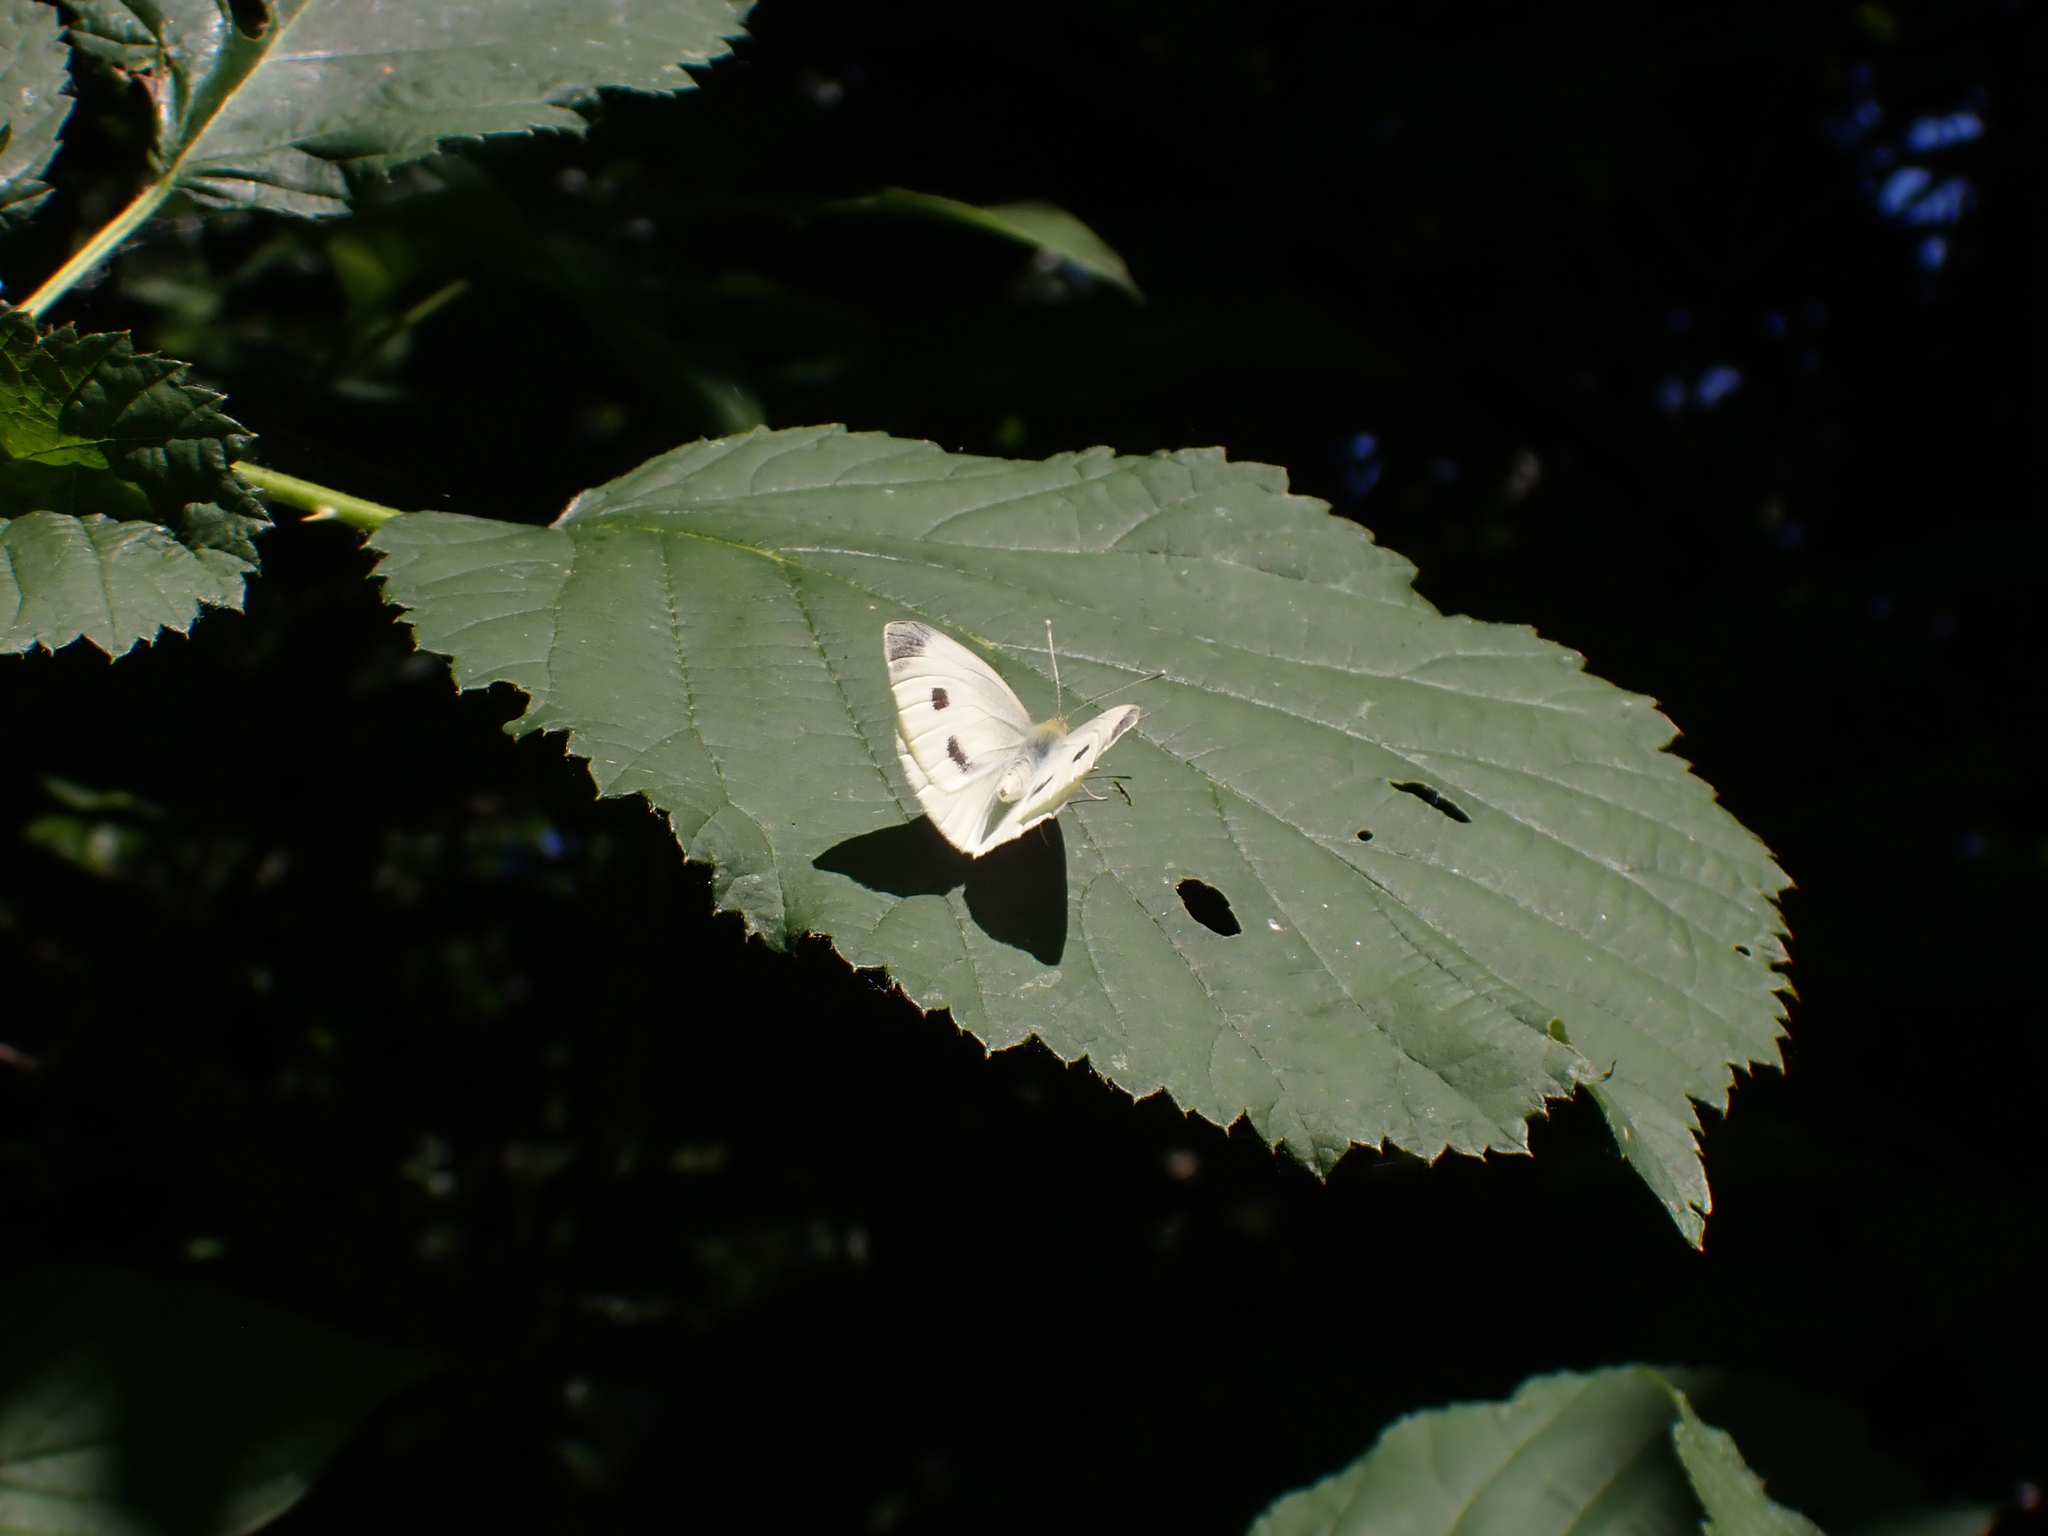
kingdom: Animalia
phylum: Arthropoda
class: Insecta
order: Lepidoptera
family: Pieridae
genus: Pieris
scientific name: Pieris rapae
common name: Small white
